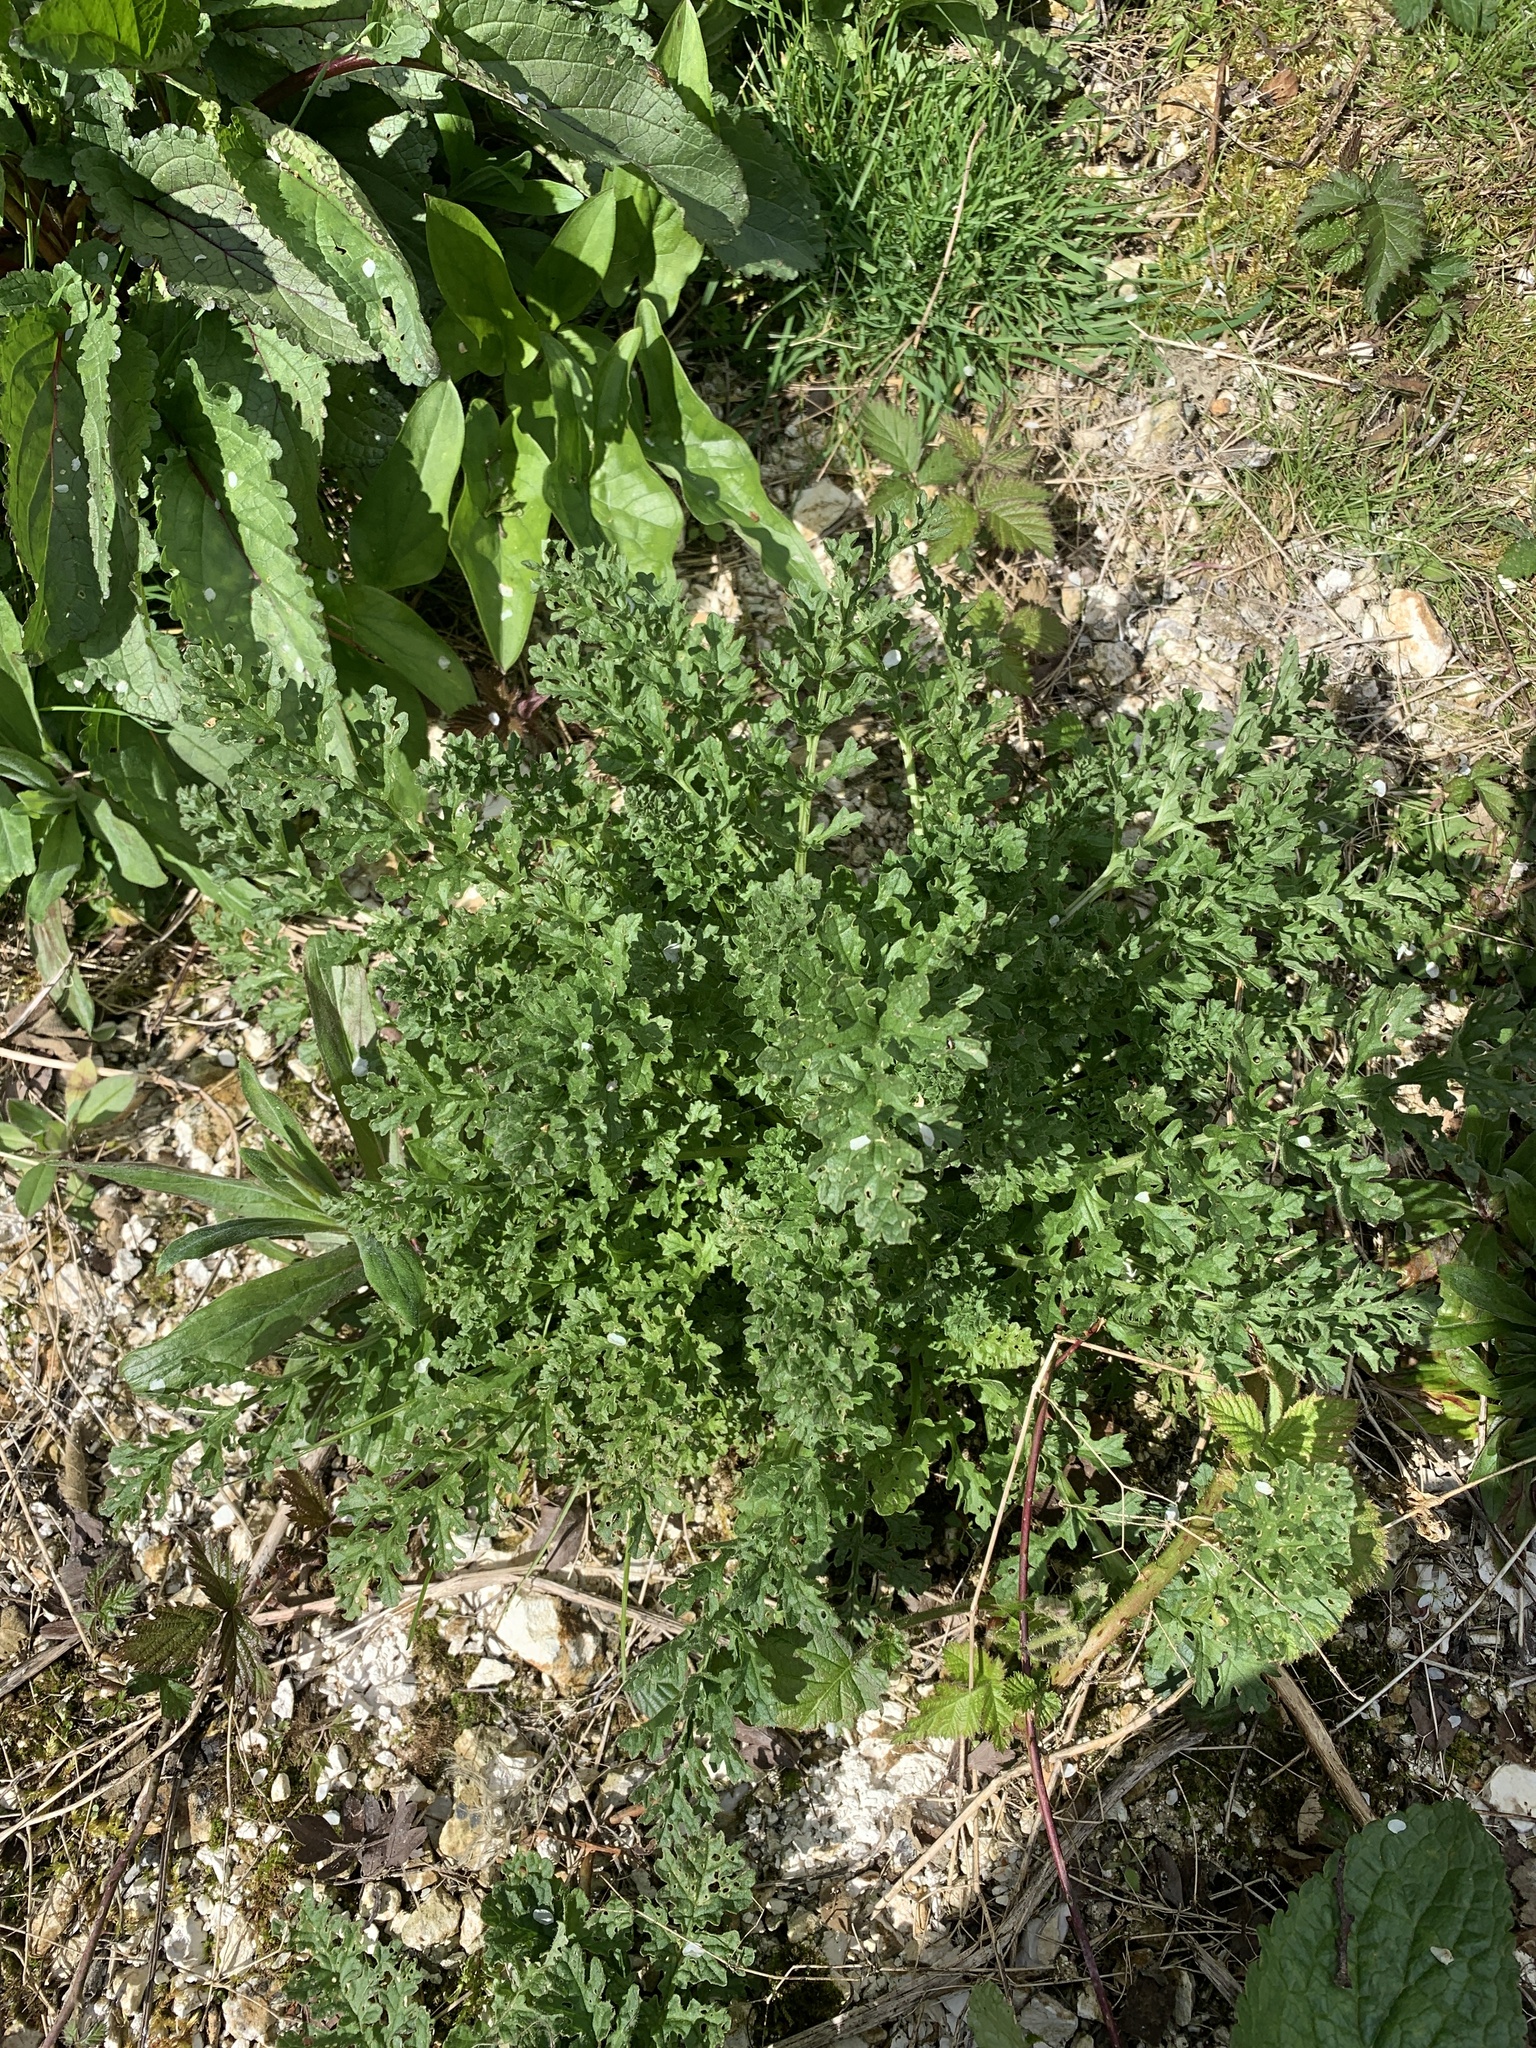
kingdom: Plantae
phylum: Tracheophyta
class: Magnoliopsida
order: Asterales
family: Asteraceae
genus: Jacobaea
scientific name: Jacobaea vulgaris
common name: Stinking willie
